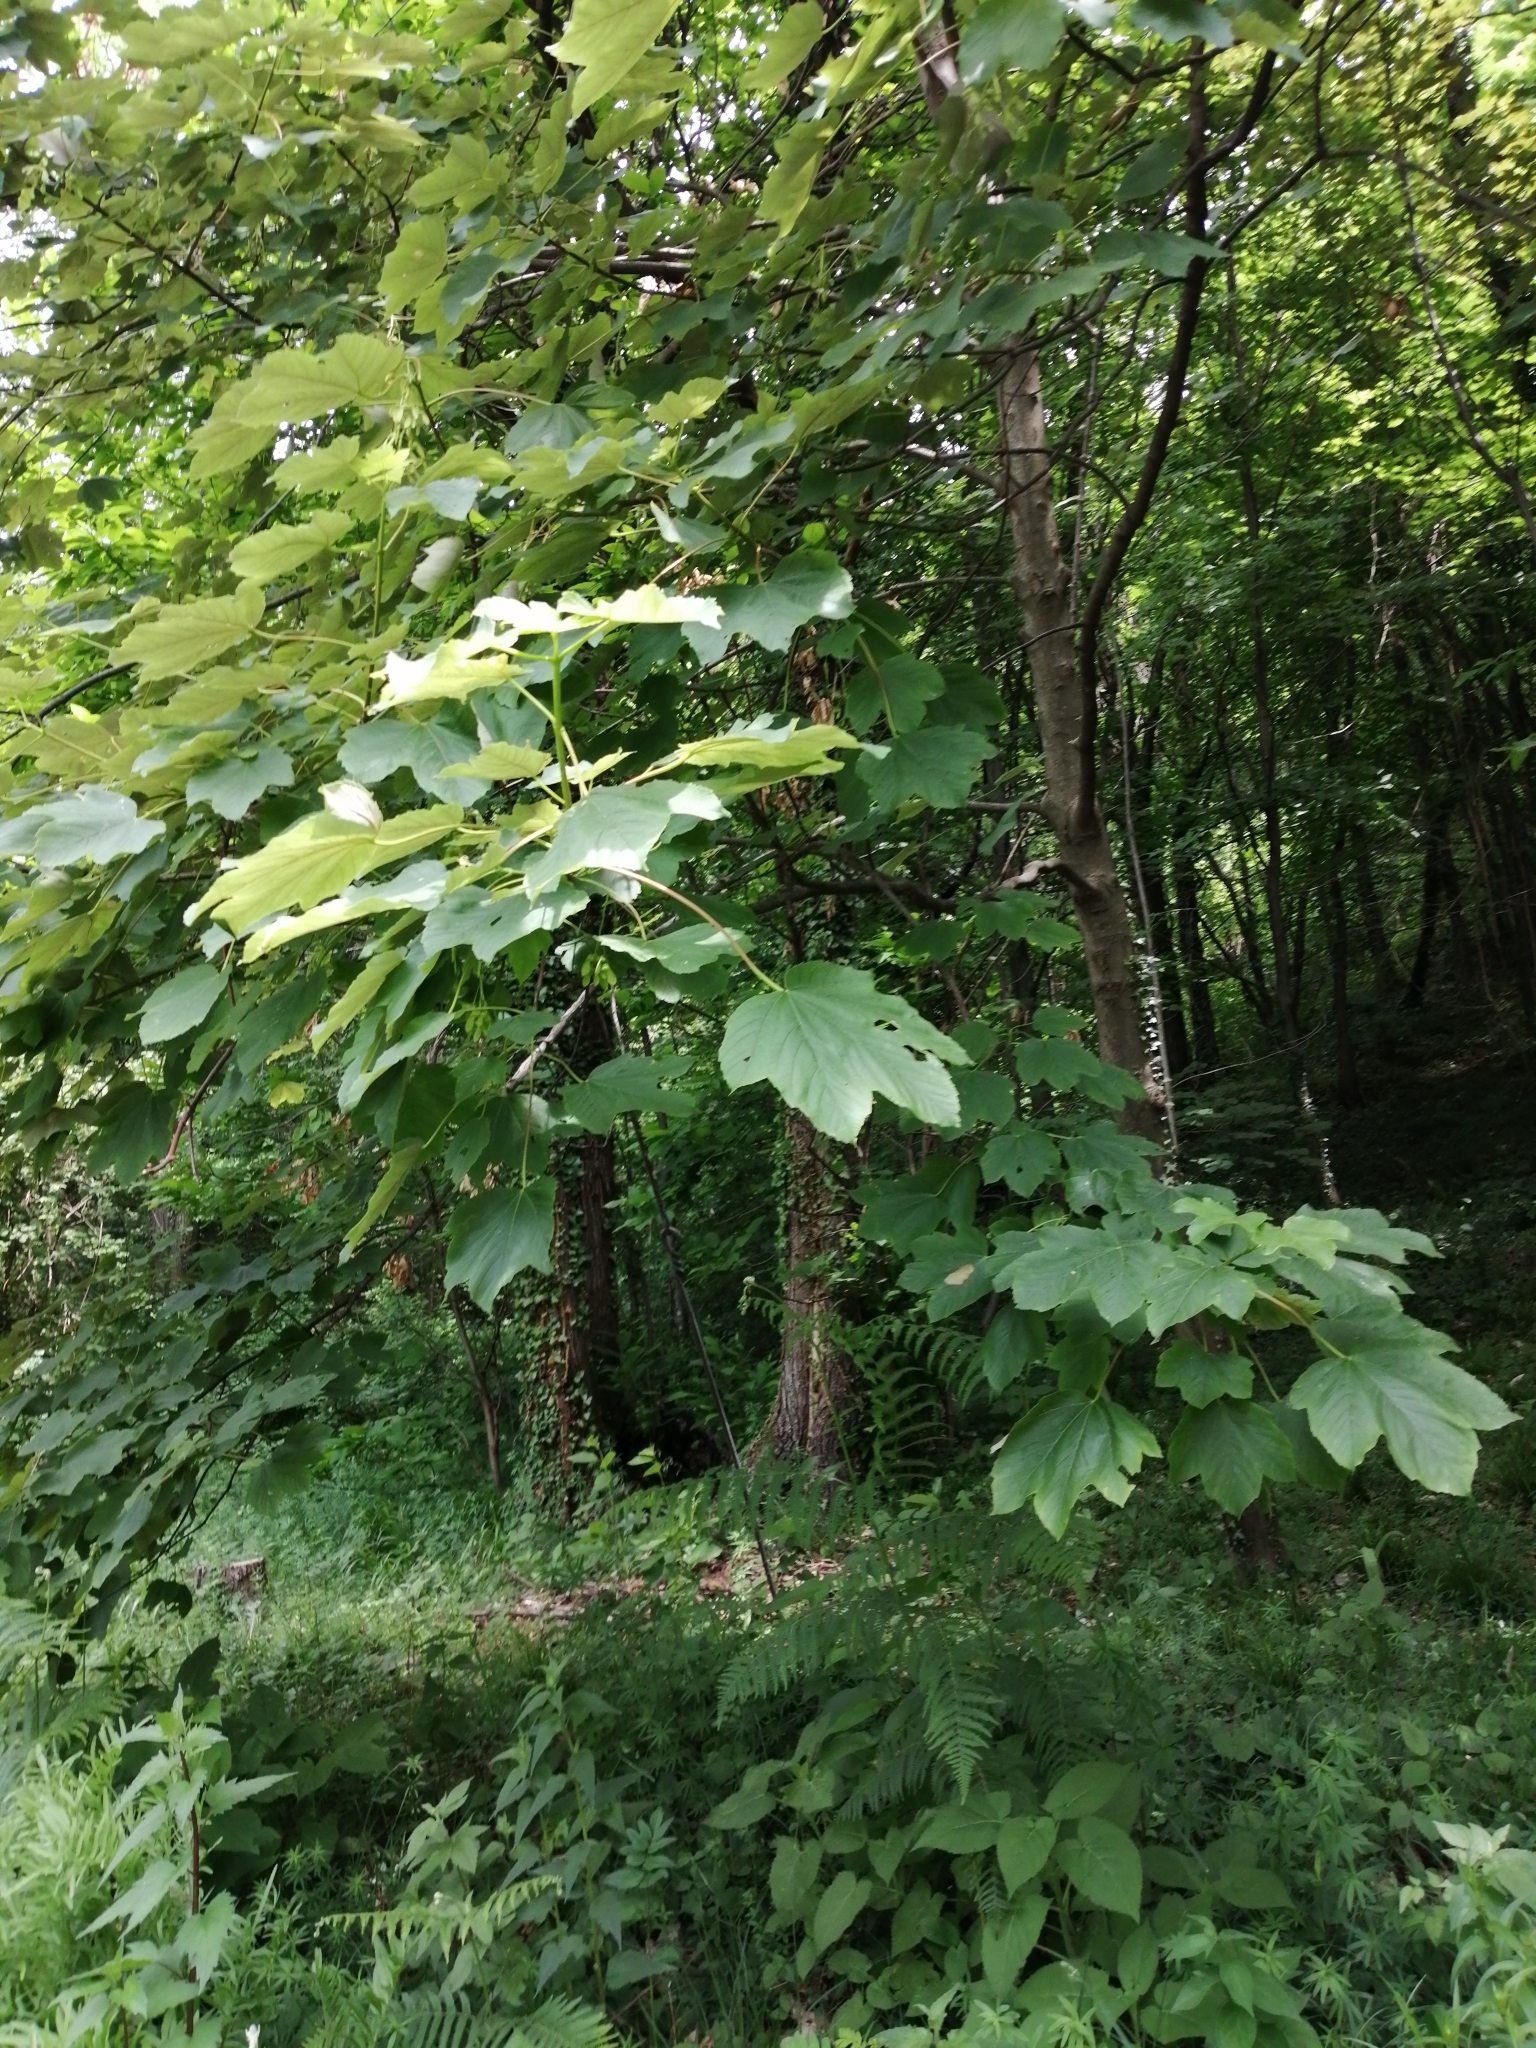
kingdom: Plantae
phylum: Tracheophyta
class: Magnoliopsida
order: Sapindales
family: Sapindaceae
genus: Acer
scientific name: Acer pseudoplatanus
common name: Sycamore
